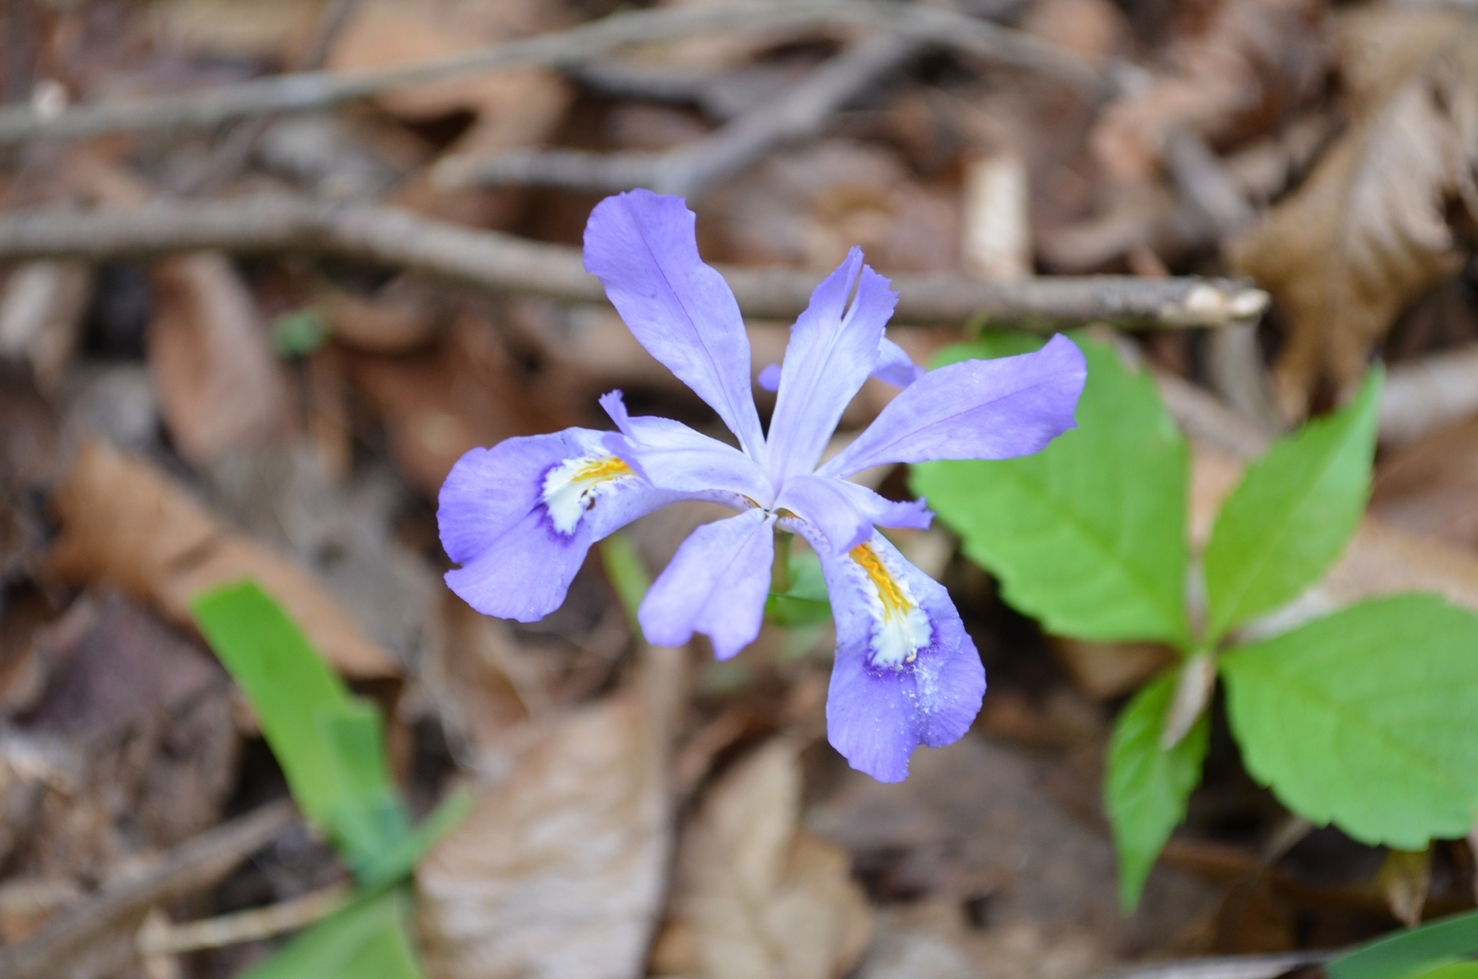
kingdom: Plantae
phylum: Tracheophyta
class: Liliopsida
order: Asparagales
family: Iridaceae
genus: Iris
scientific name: Iris cristata
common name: Crested iris
